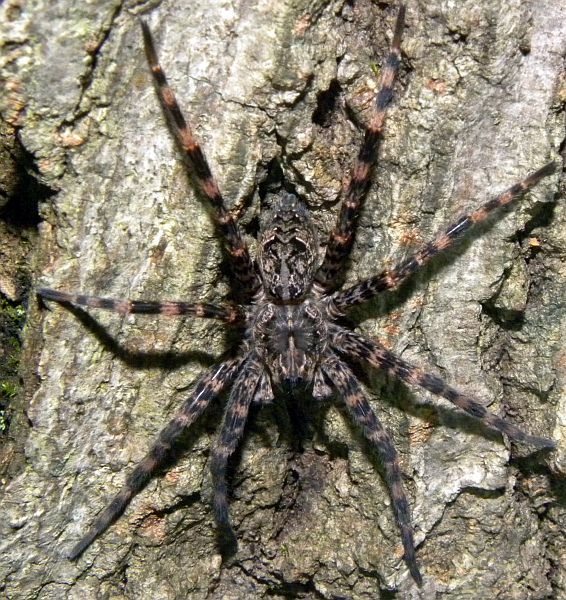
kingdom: Animalia
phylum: Arthropoda
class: Arachnida
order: Araneae
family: Pisauridae
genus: Dolomedes
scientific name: Dolomedes tenebrosus
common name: Dark fishing spider
